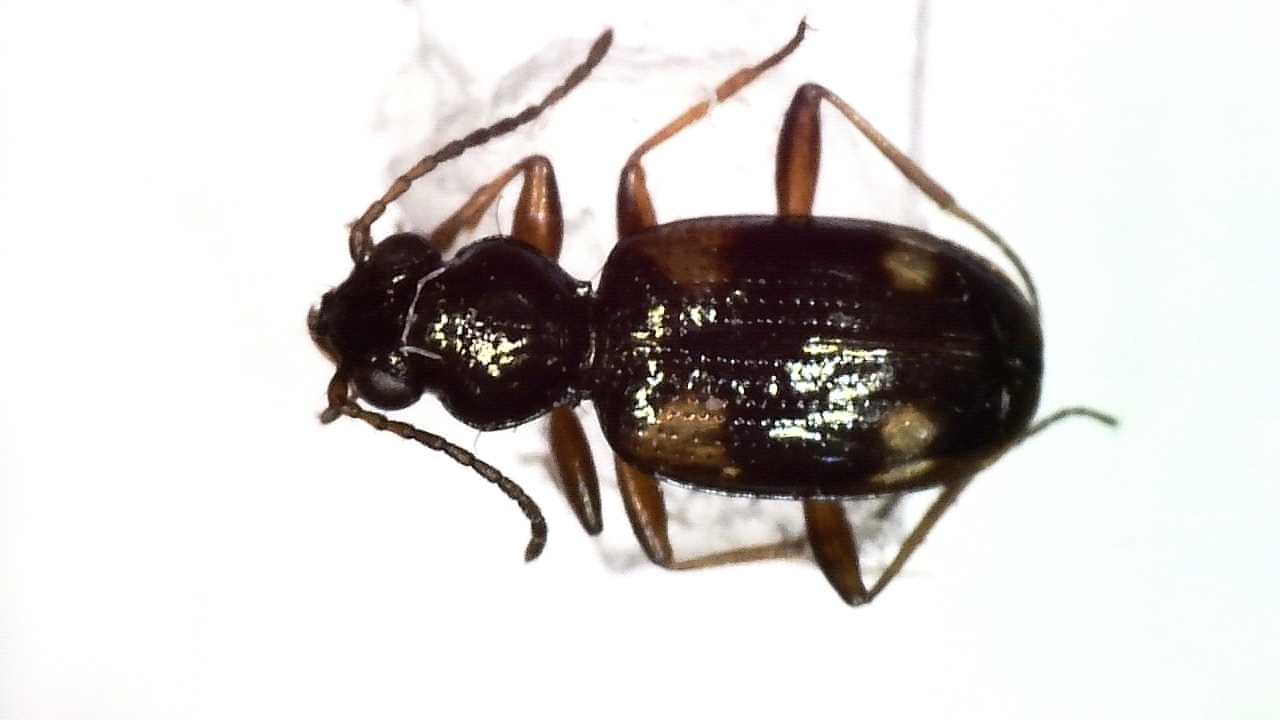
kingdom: Animalia
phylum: Arthropoda
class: Insecta
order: Coleoptera
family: Carabidae
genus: Bembidion
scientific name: Bembidion quadrimaculatum
